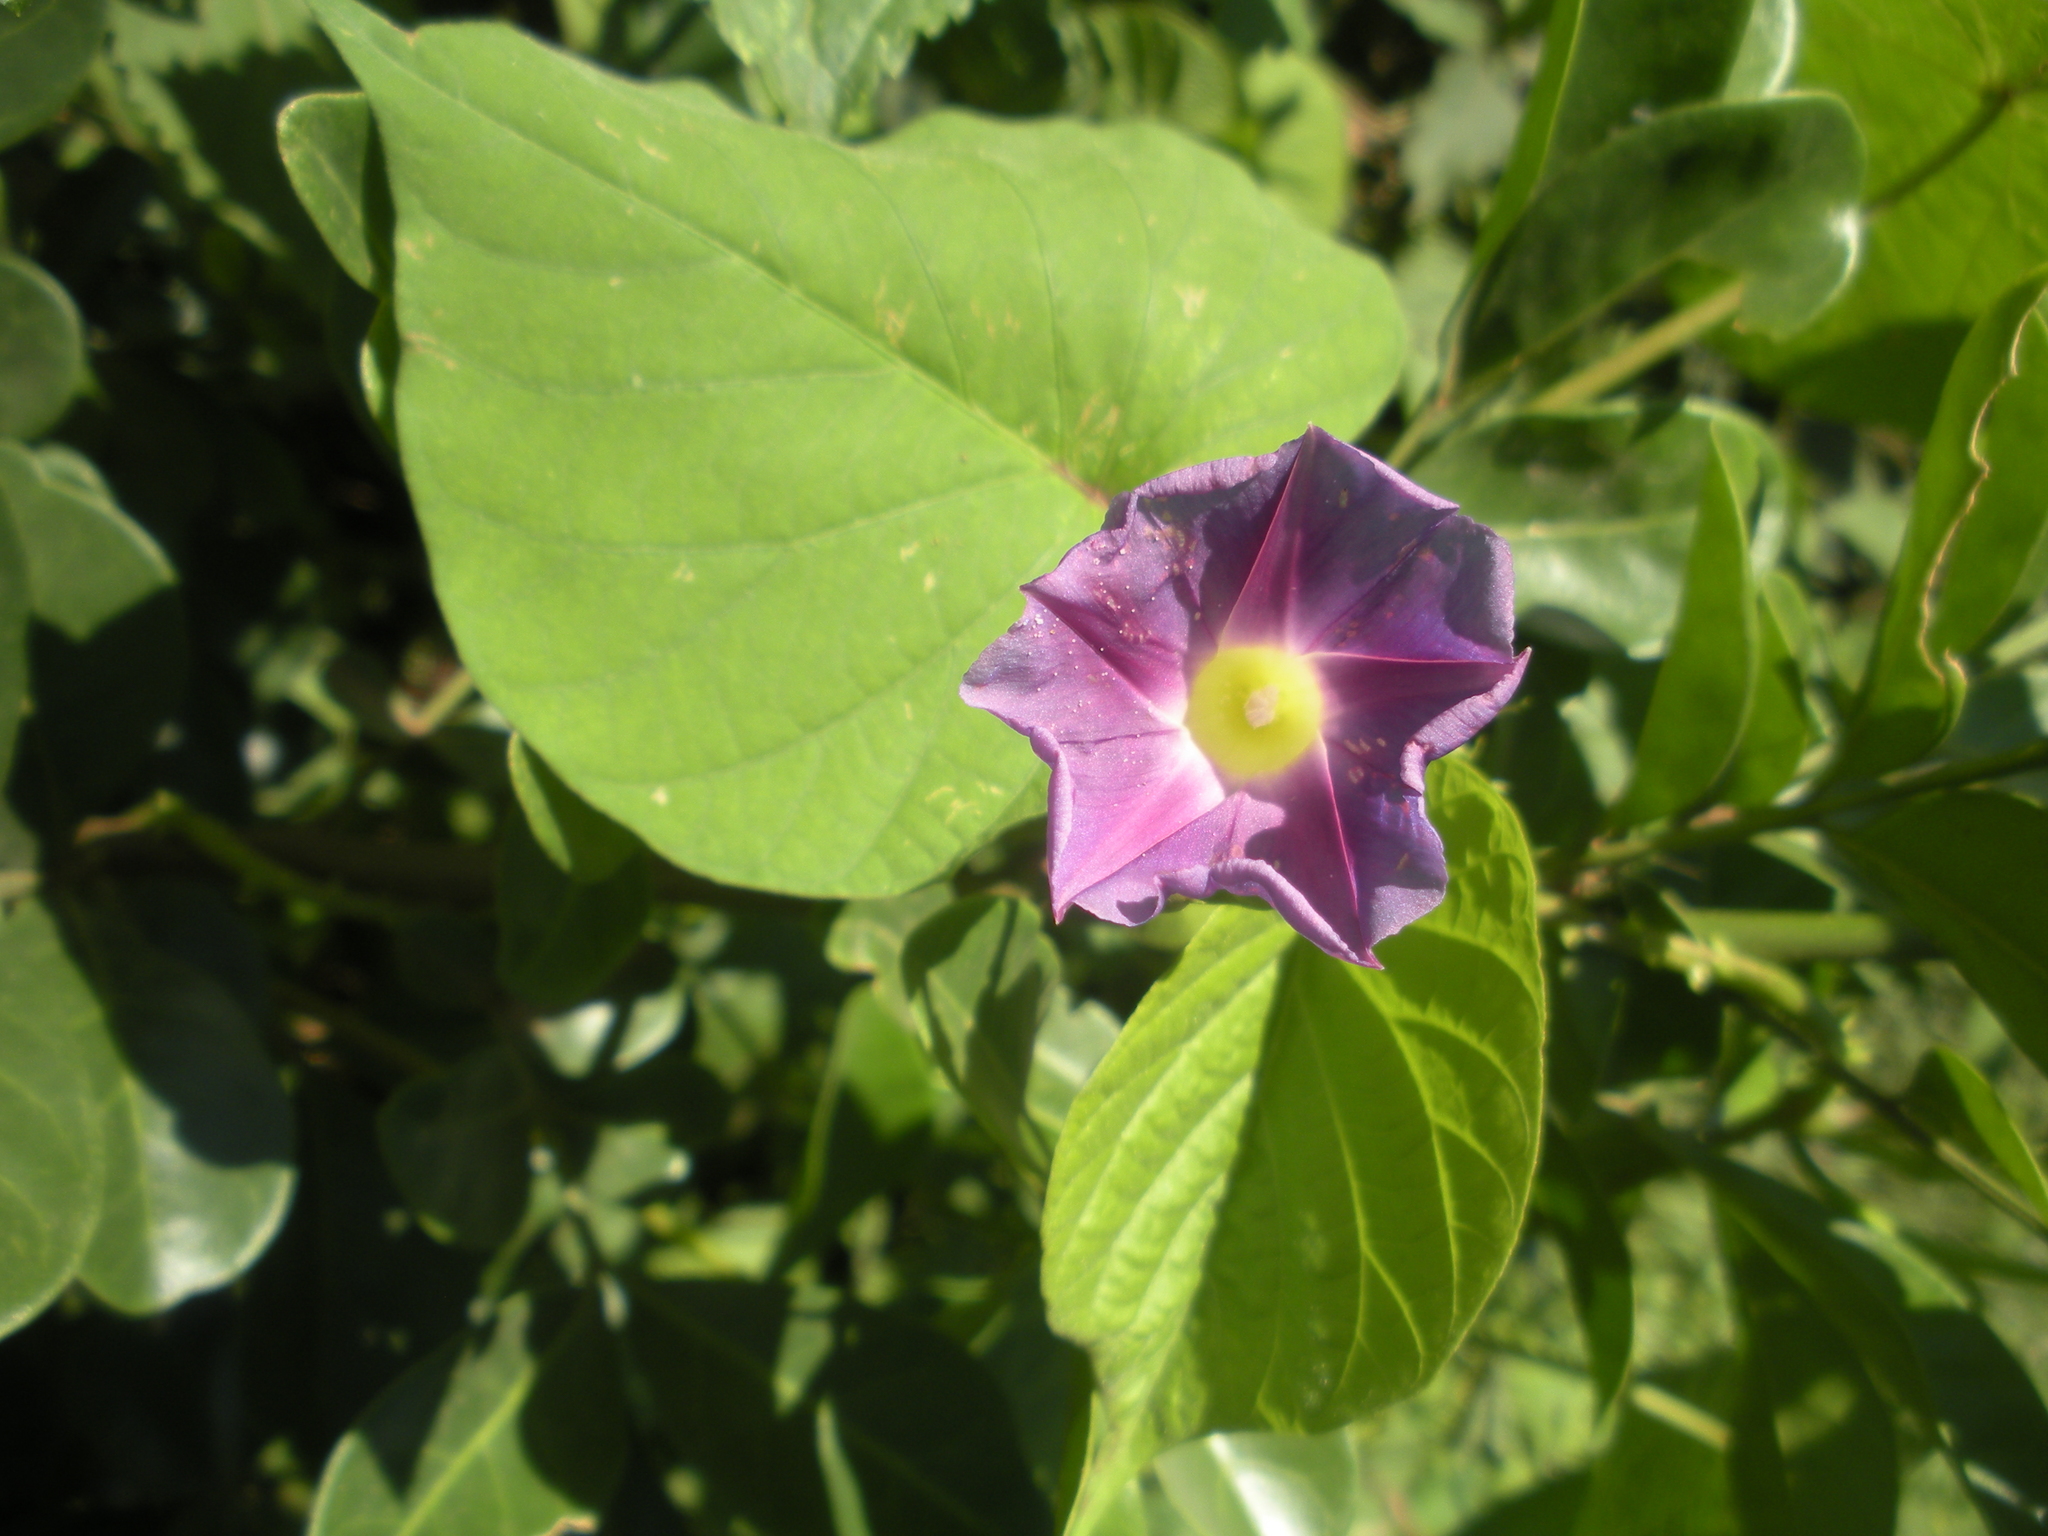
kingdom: Plantae
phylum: Tracheophyta
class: Magnoliopsida
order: Solanales
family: Convolvulaceae
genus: Ipomoea
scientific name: Ipomoea parasitica
